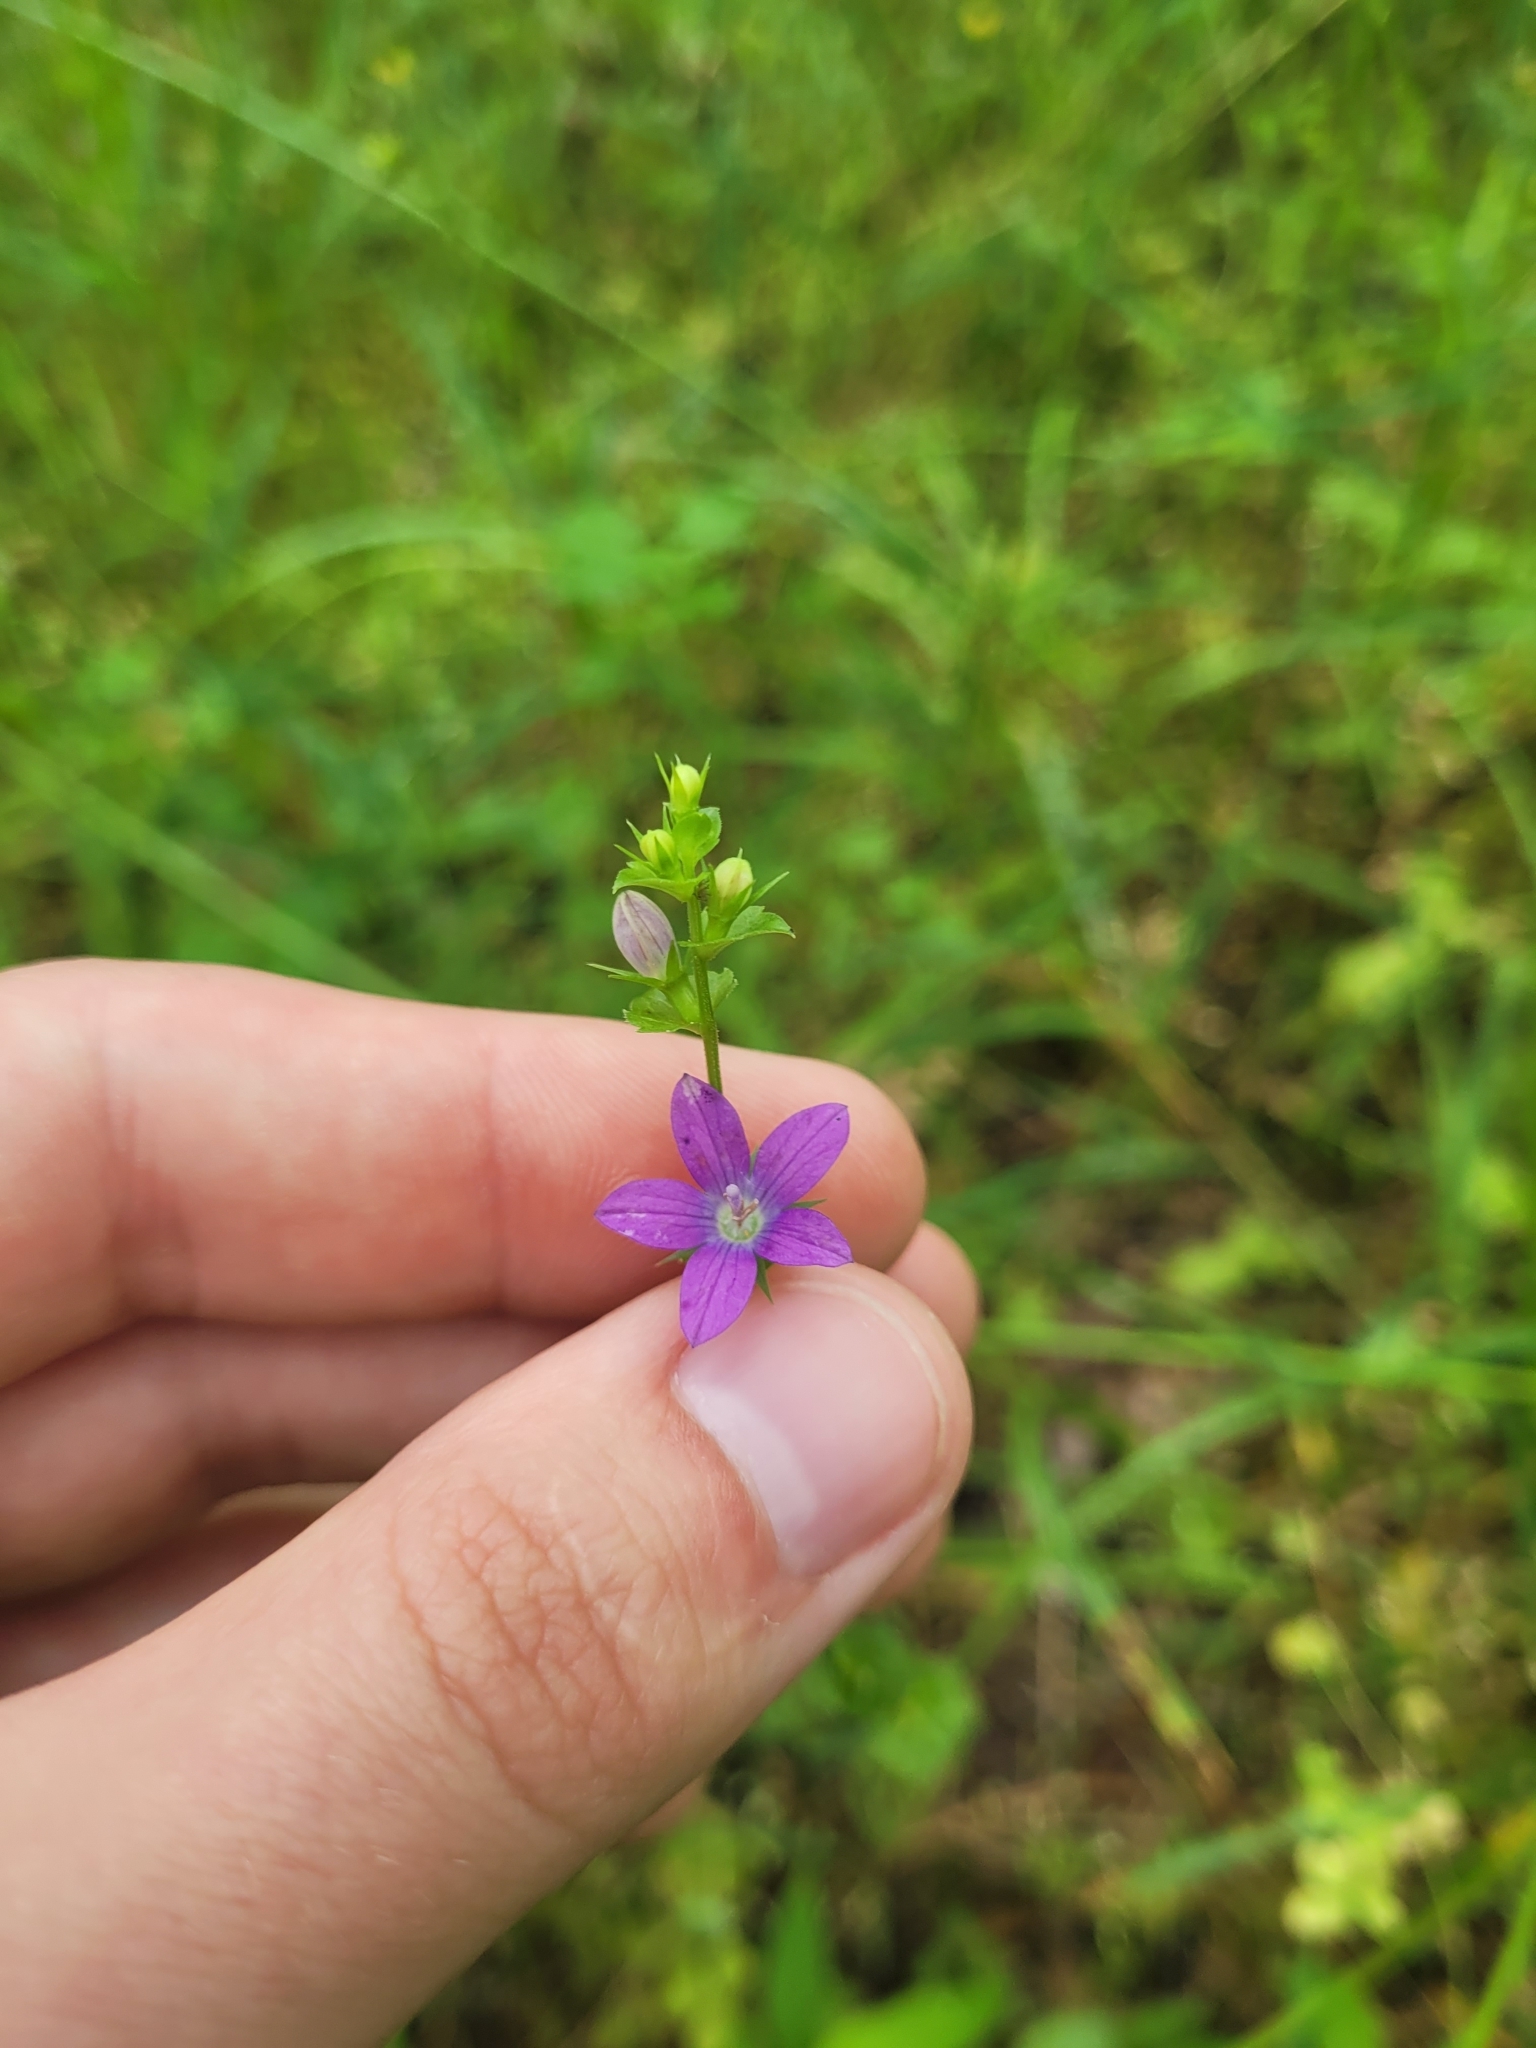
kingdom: Plantae
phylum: Tracheophyta
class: Magnoliopsida
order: Asterales
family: Campanulaceae
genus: Triodanis
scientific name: Triodanis perfoliata
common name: Clasping venus' looking-glass
